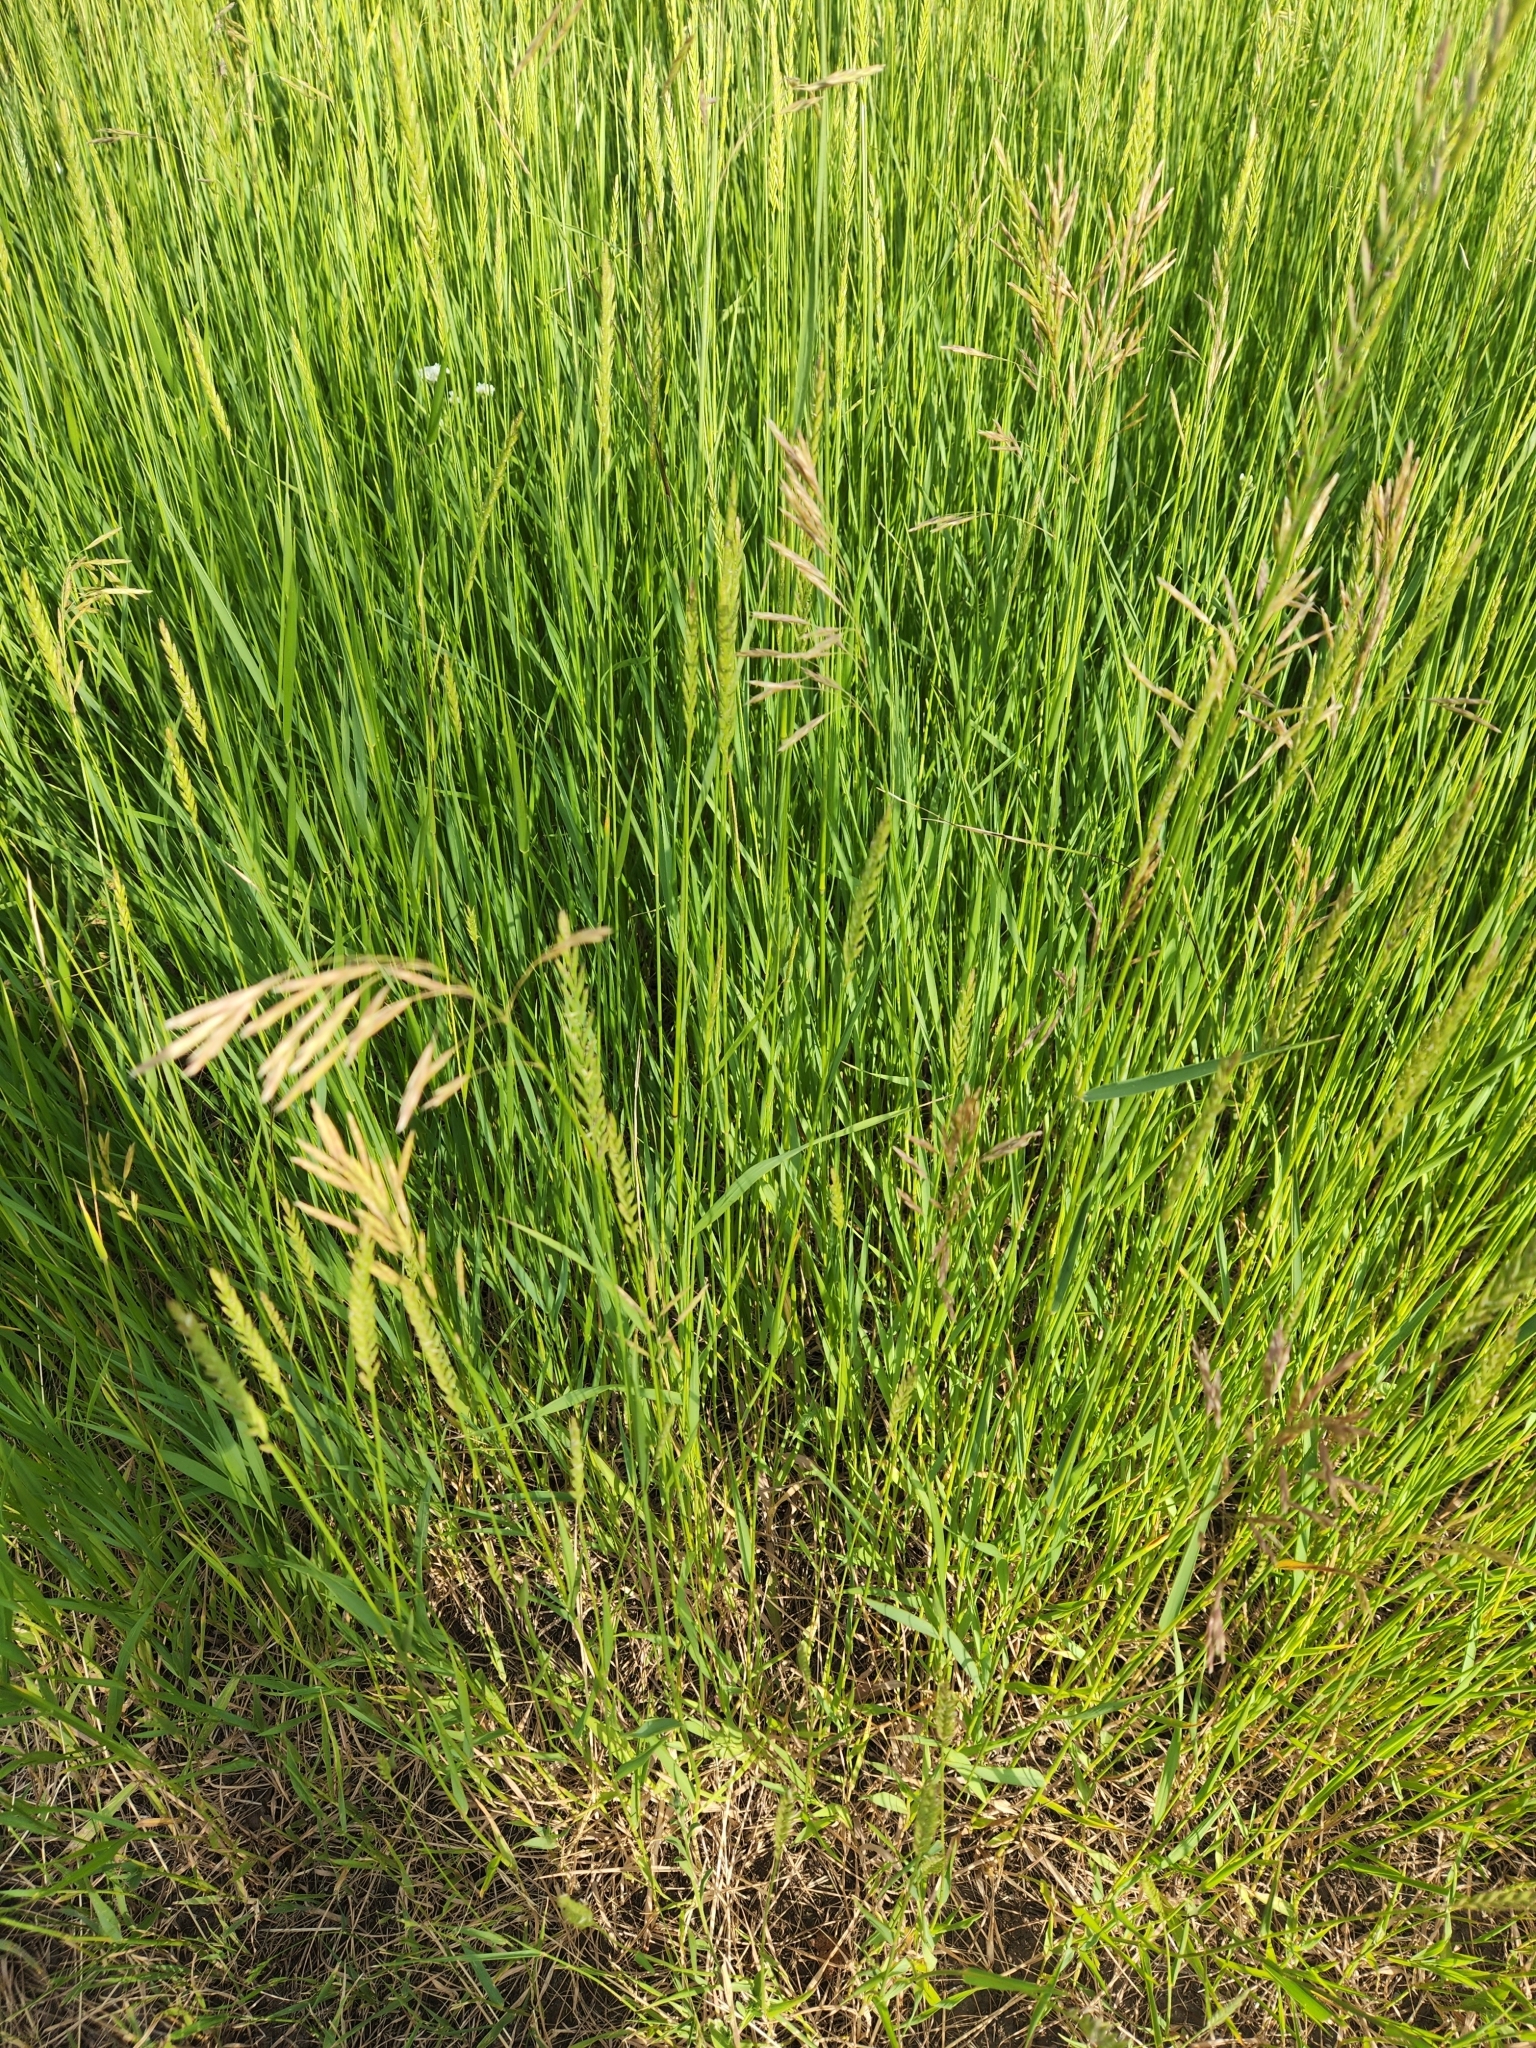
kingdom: Plantae
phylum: Tracheophyta
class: Liliopsida
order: Poales
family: Poaceae
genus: Bromus
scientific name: Bromus inermis
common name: Smooth brome
